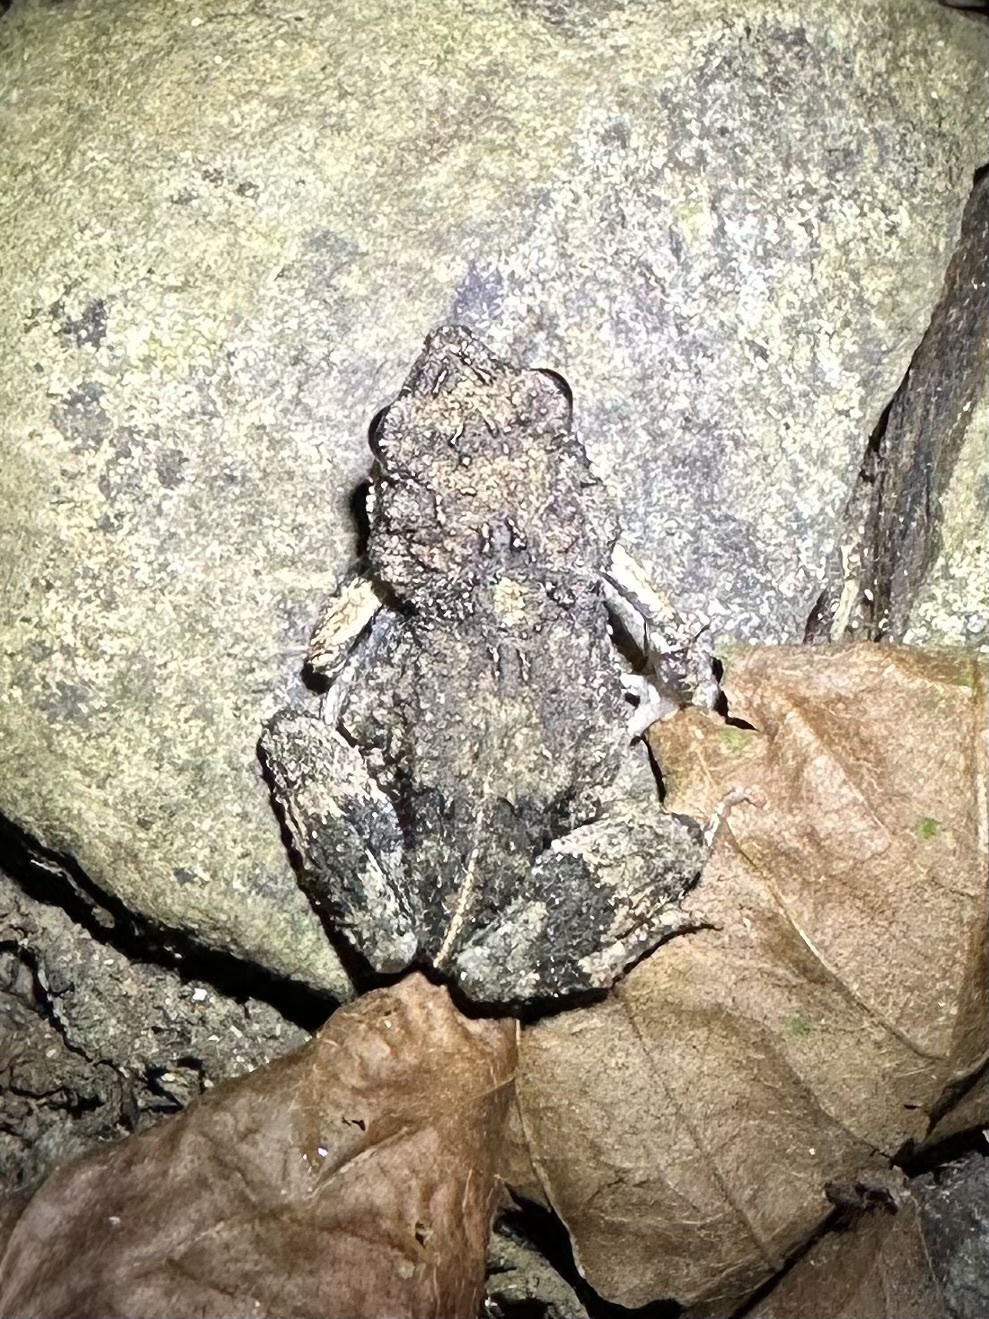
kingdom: Animalia
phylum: Chordata
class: Amphibia
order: Anura
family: Leptodactylidae
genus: Engystomops
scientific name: Engystomops pustulosus
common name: Tungara frog
